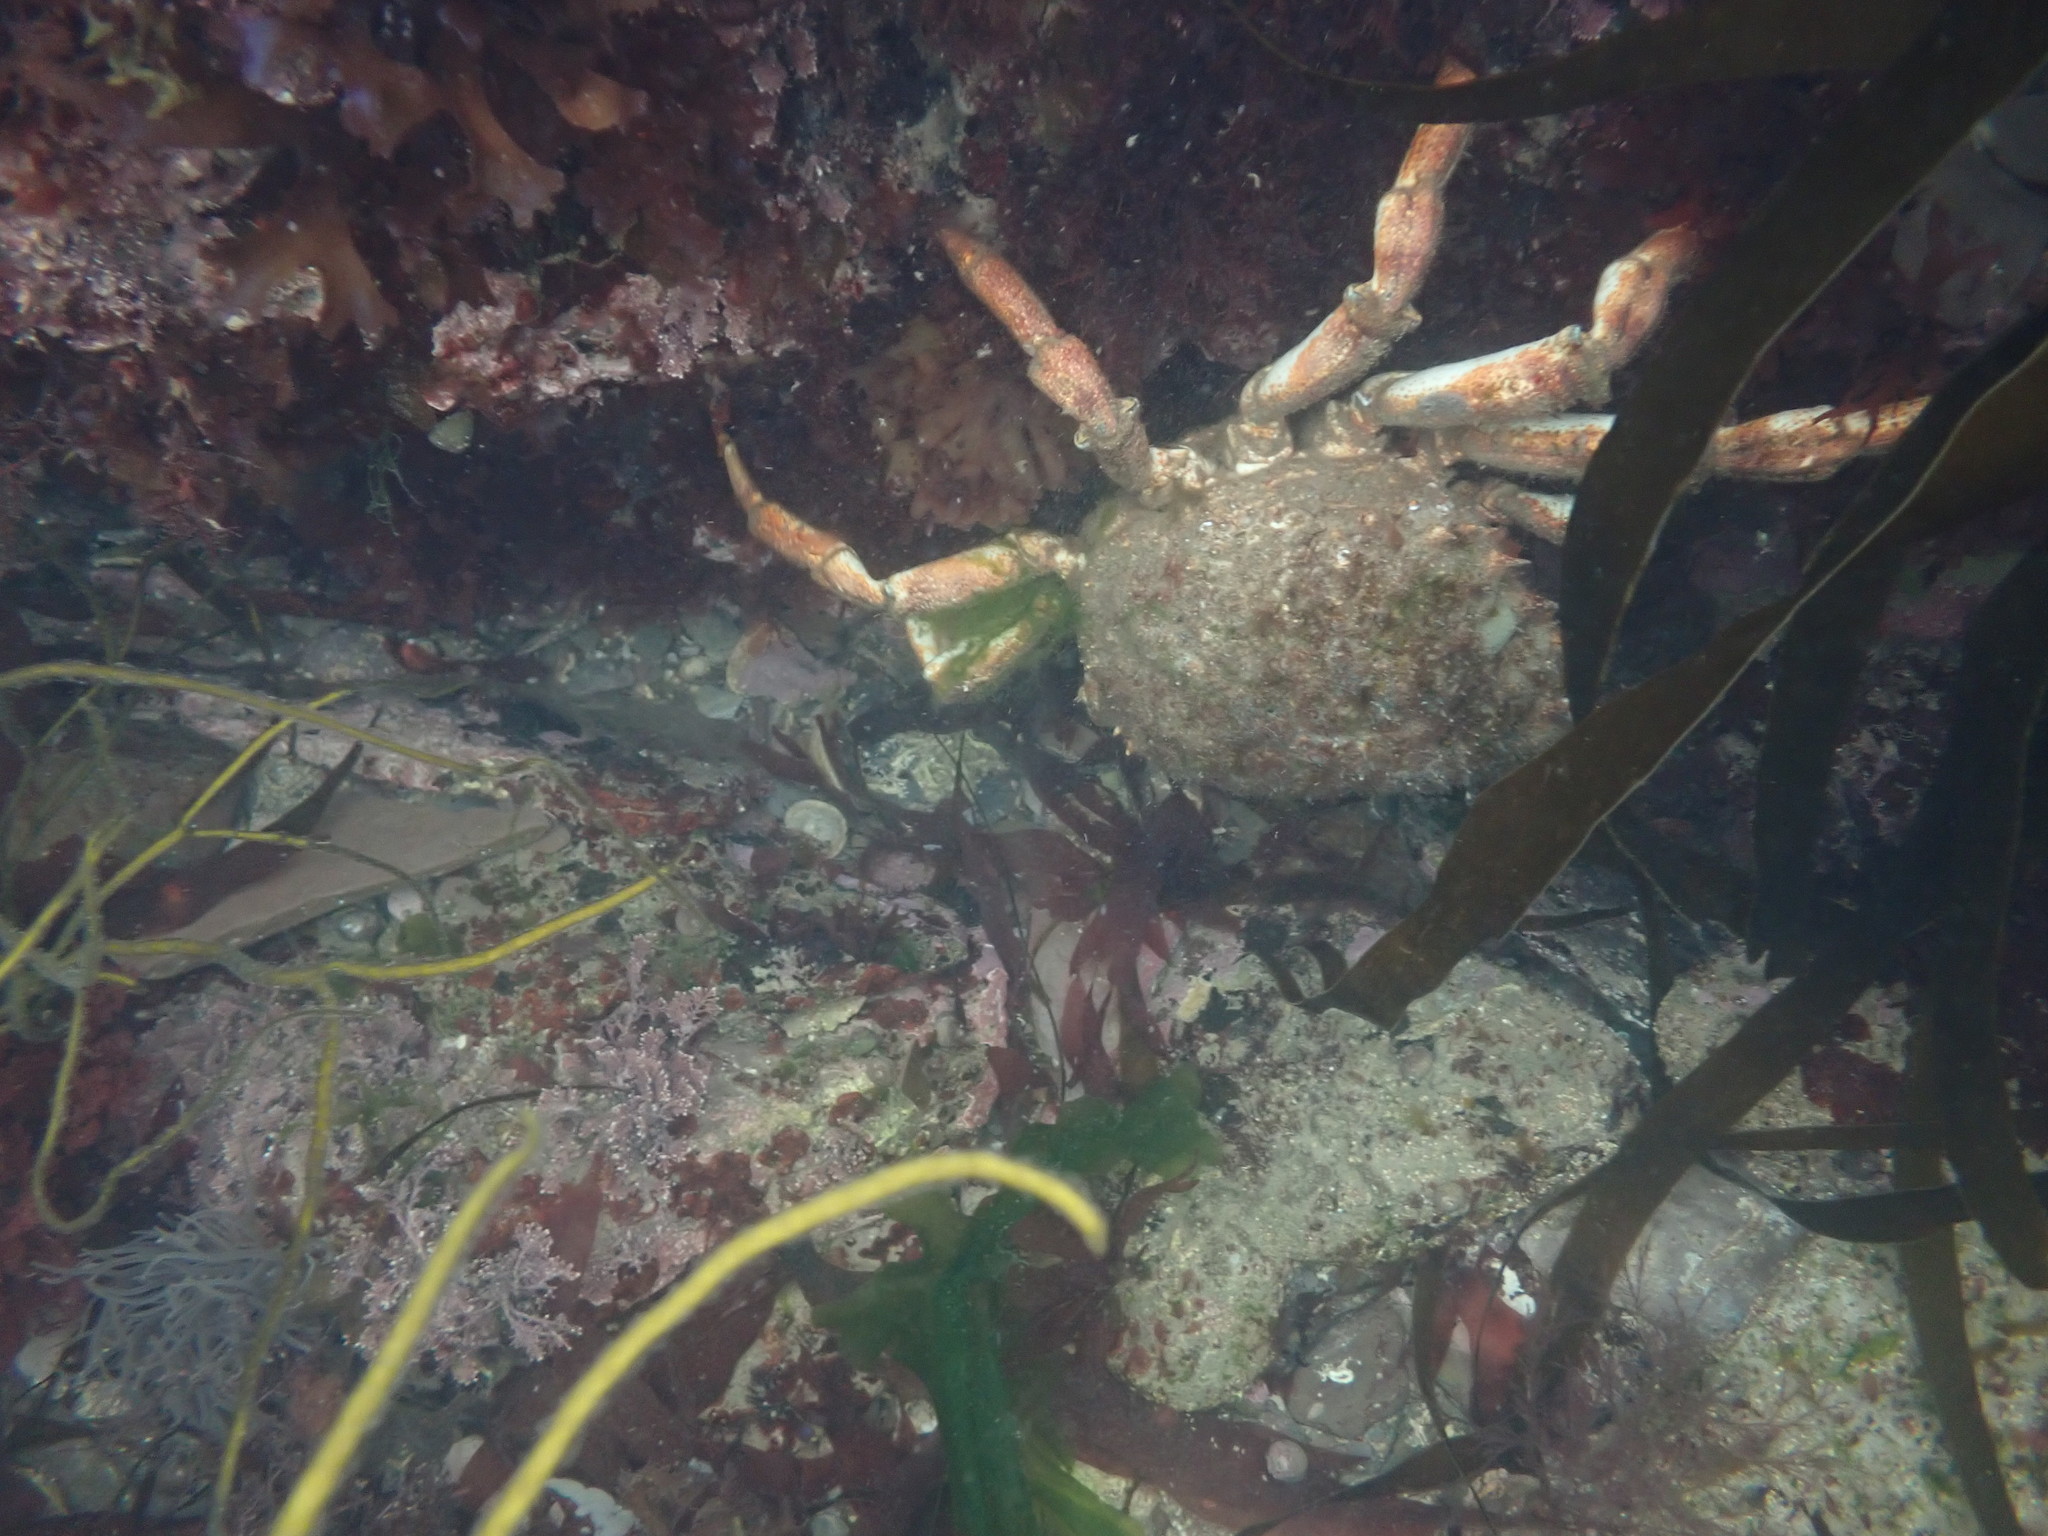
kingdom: Animalia
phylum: Arthropoda
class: Malacostraca
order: Decapoda
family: Majidae
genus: Maja
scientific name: Maja brachydactyla
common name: Common spider crab
